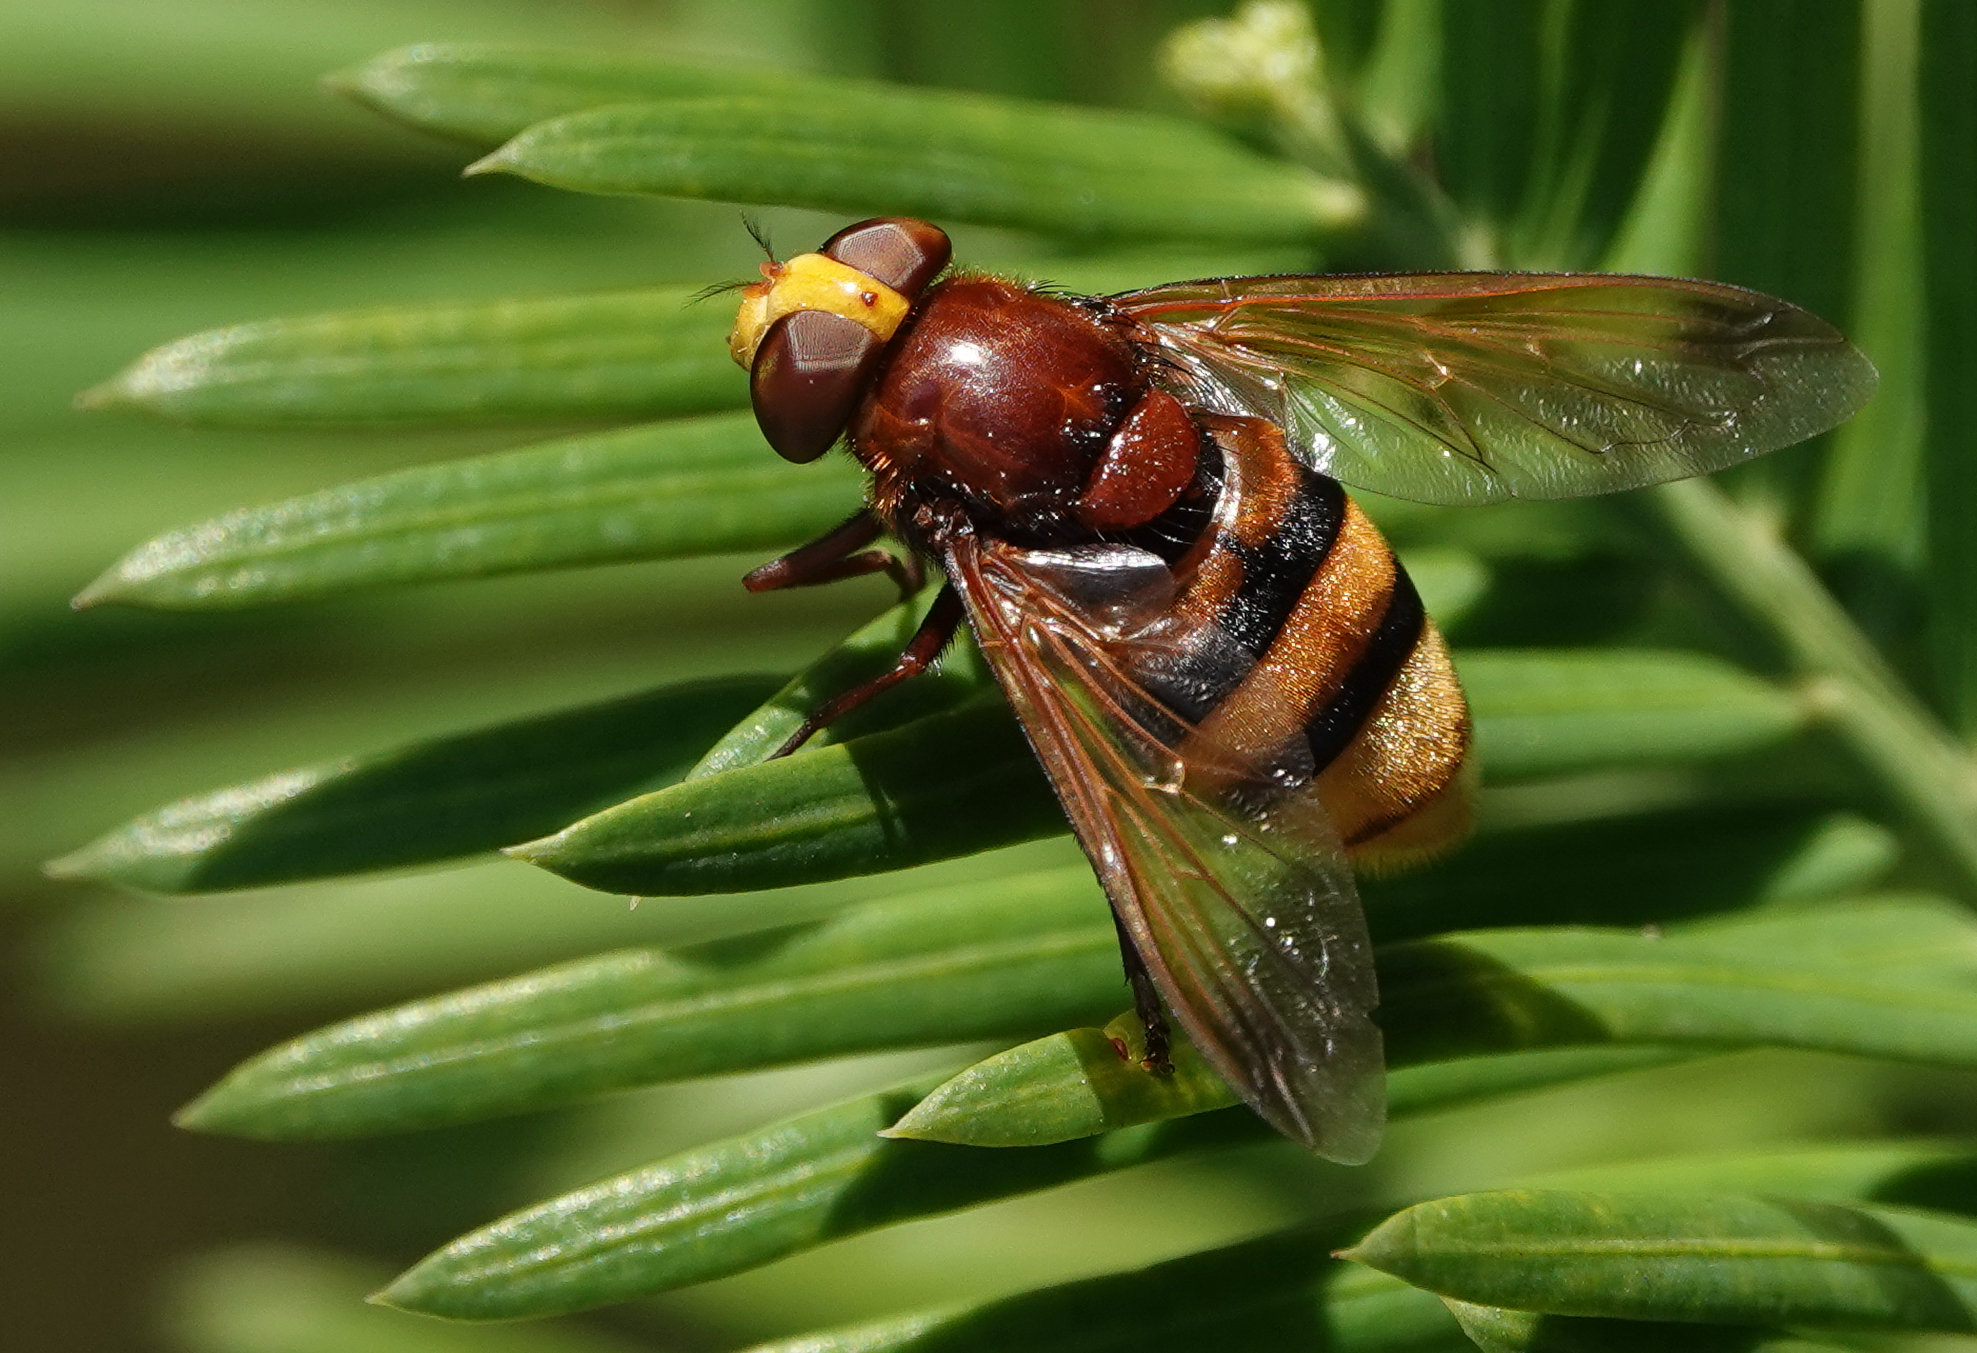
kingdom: Animalia
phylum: Arthropoda
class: Insecta
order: Diptera
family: Syrphidae
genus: Volucella
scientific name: Volucella zonaria
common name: Hornet hoverfly
